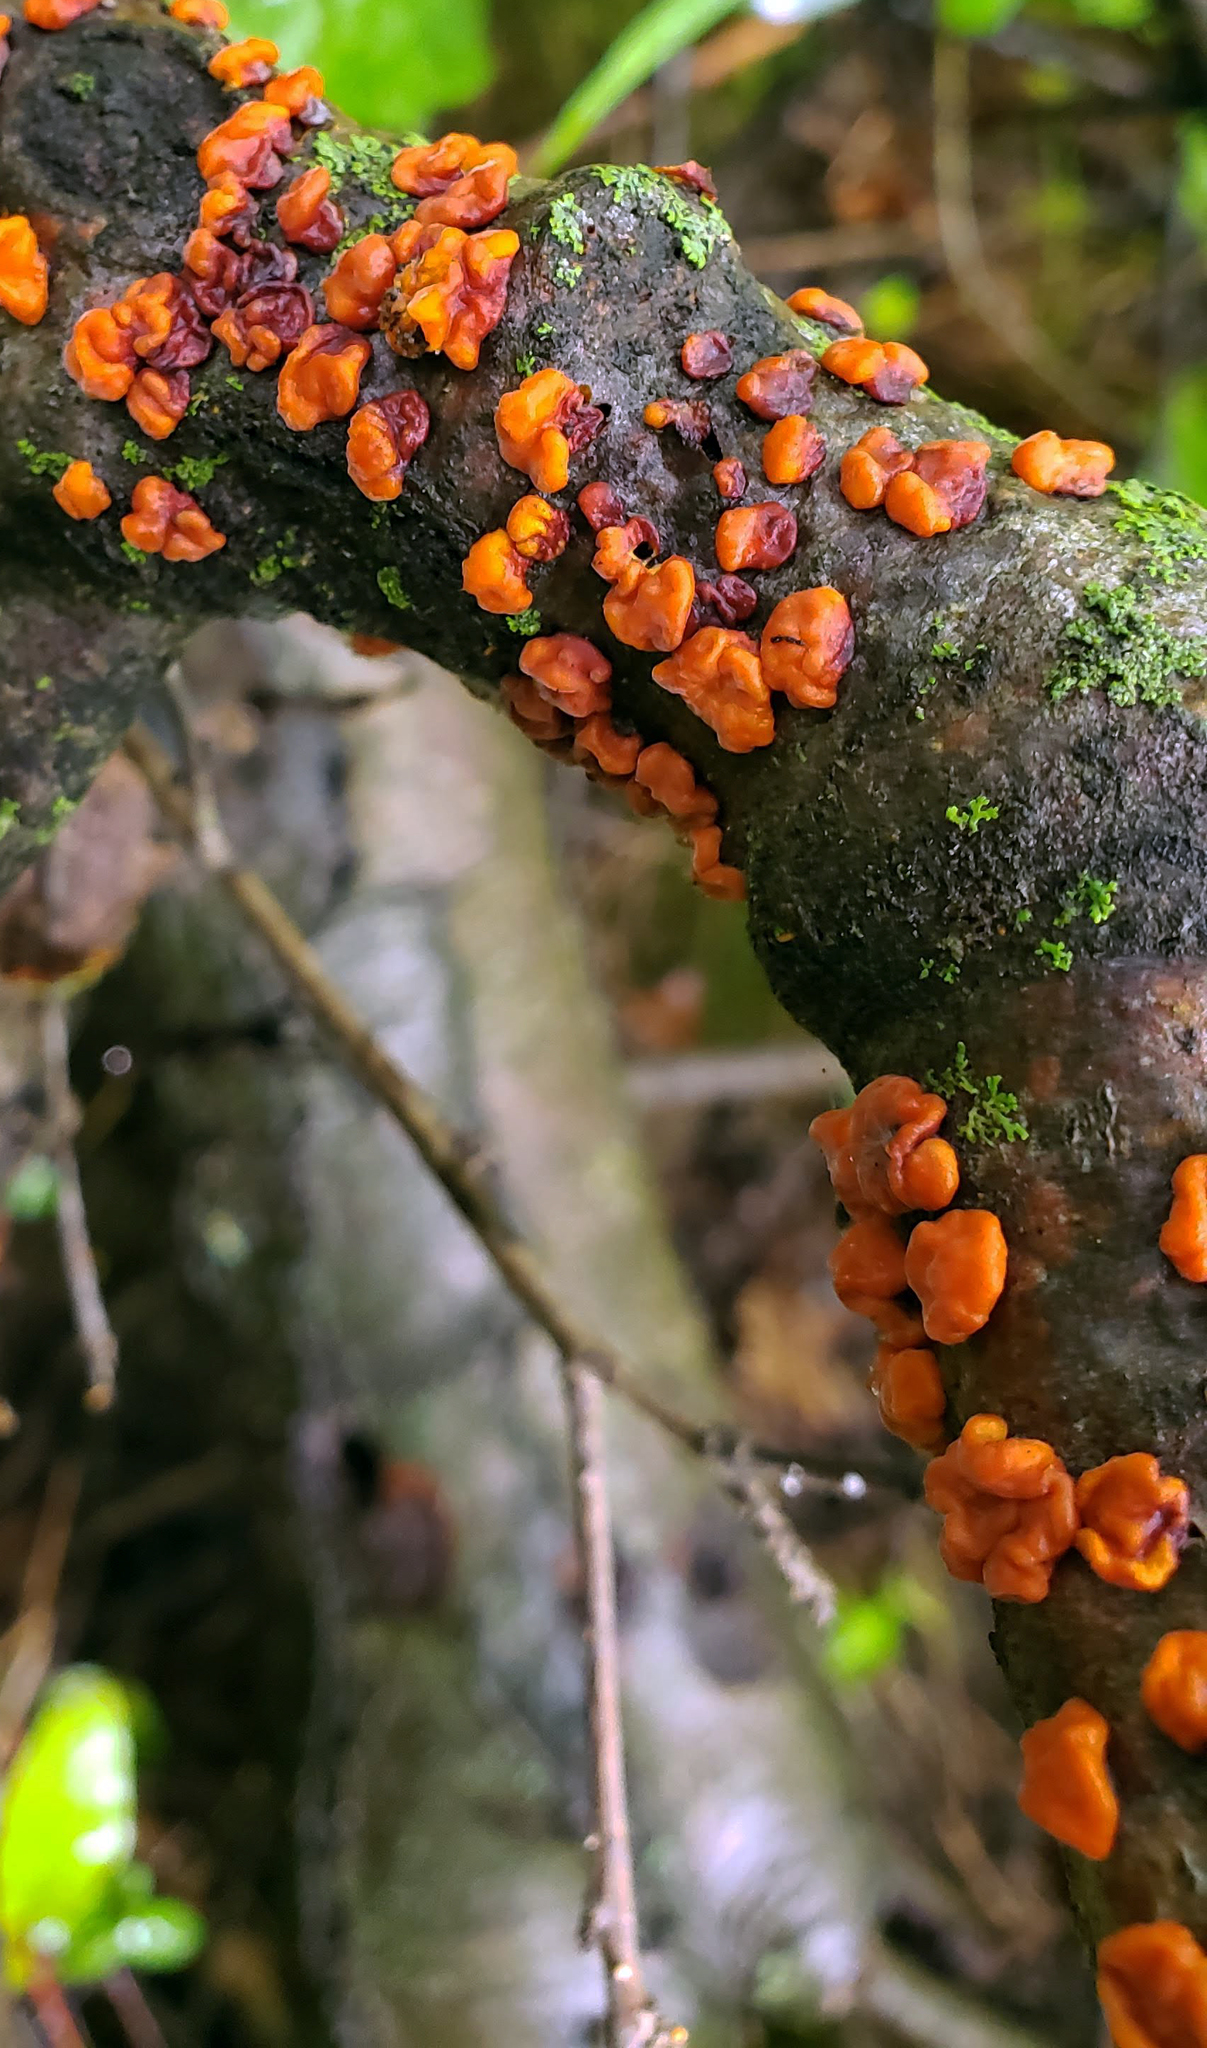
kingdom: Fungi
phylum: Basidiomycota
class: Agaricomycetes
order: Russulales
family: Peniophoraceae
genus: Peniophora
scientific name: Peniophora rufa
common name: Red tree brain fungus
